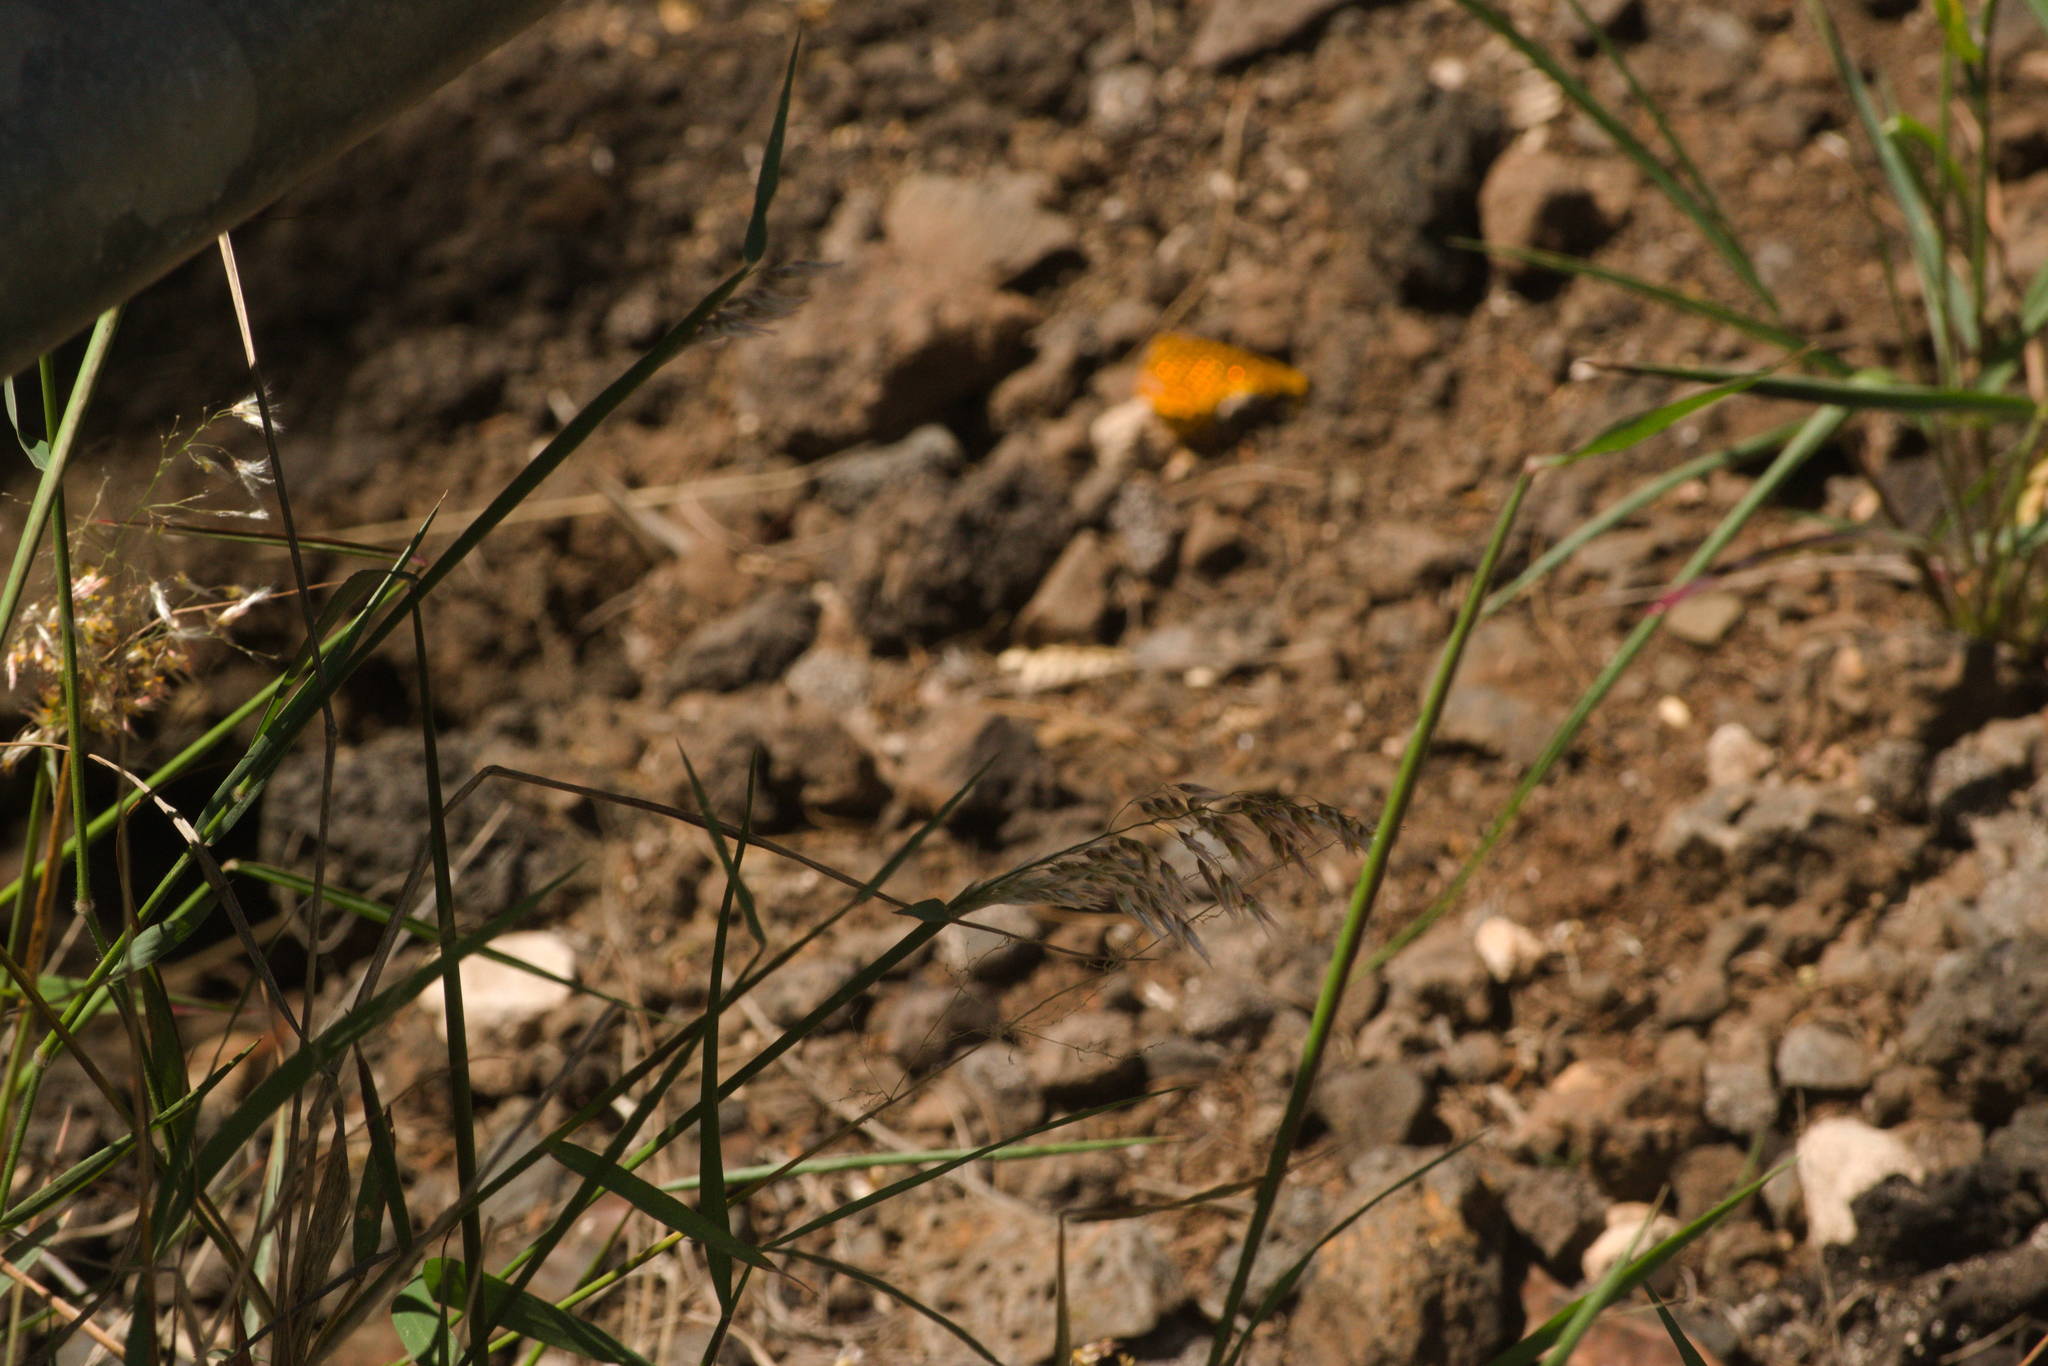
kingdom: Plantae
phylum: Tracheophyta
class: Liliopsida
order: Poales
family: Poaceae
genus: Melinis
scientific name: Melinis repens
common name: Rose natal grass
